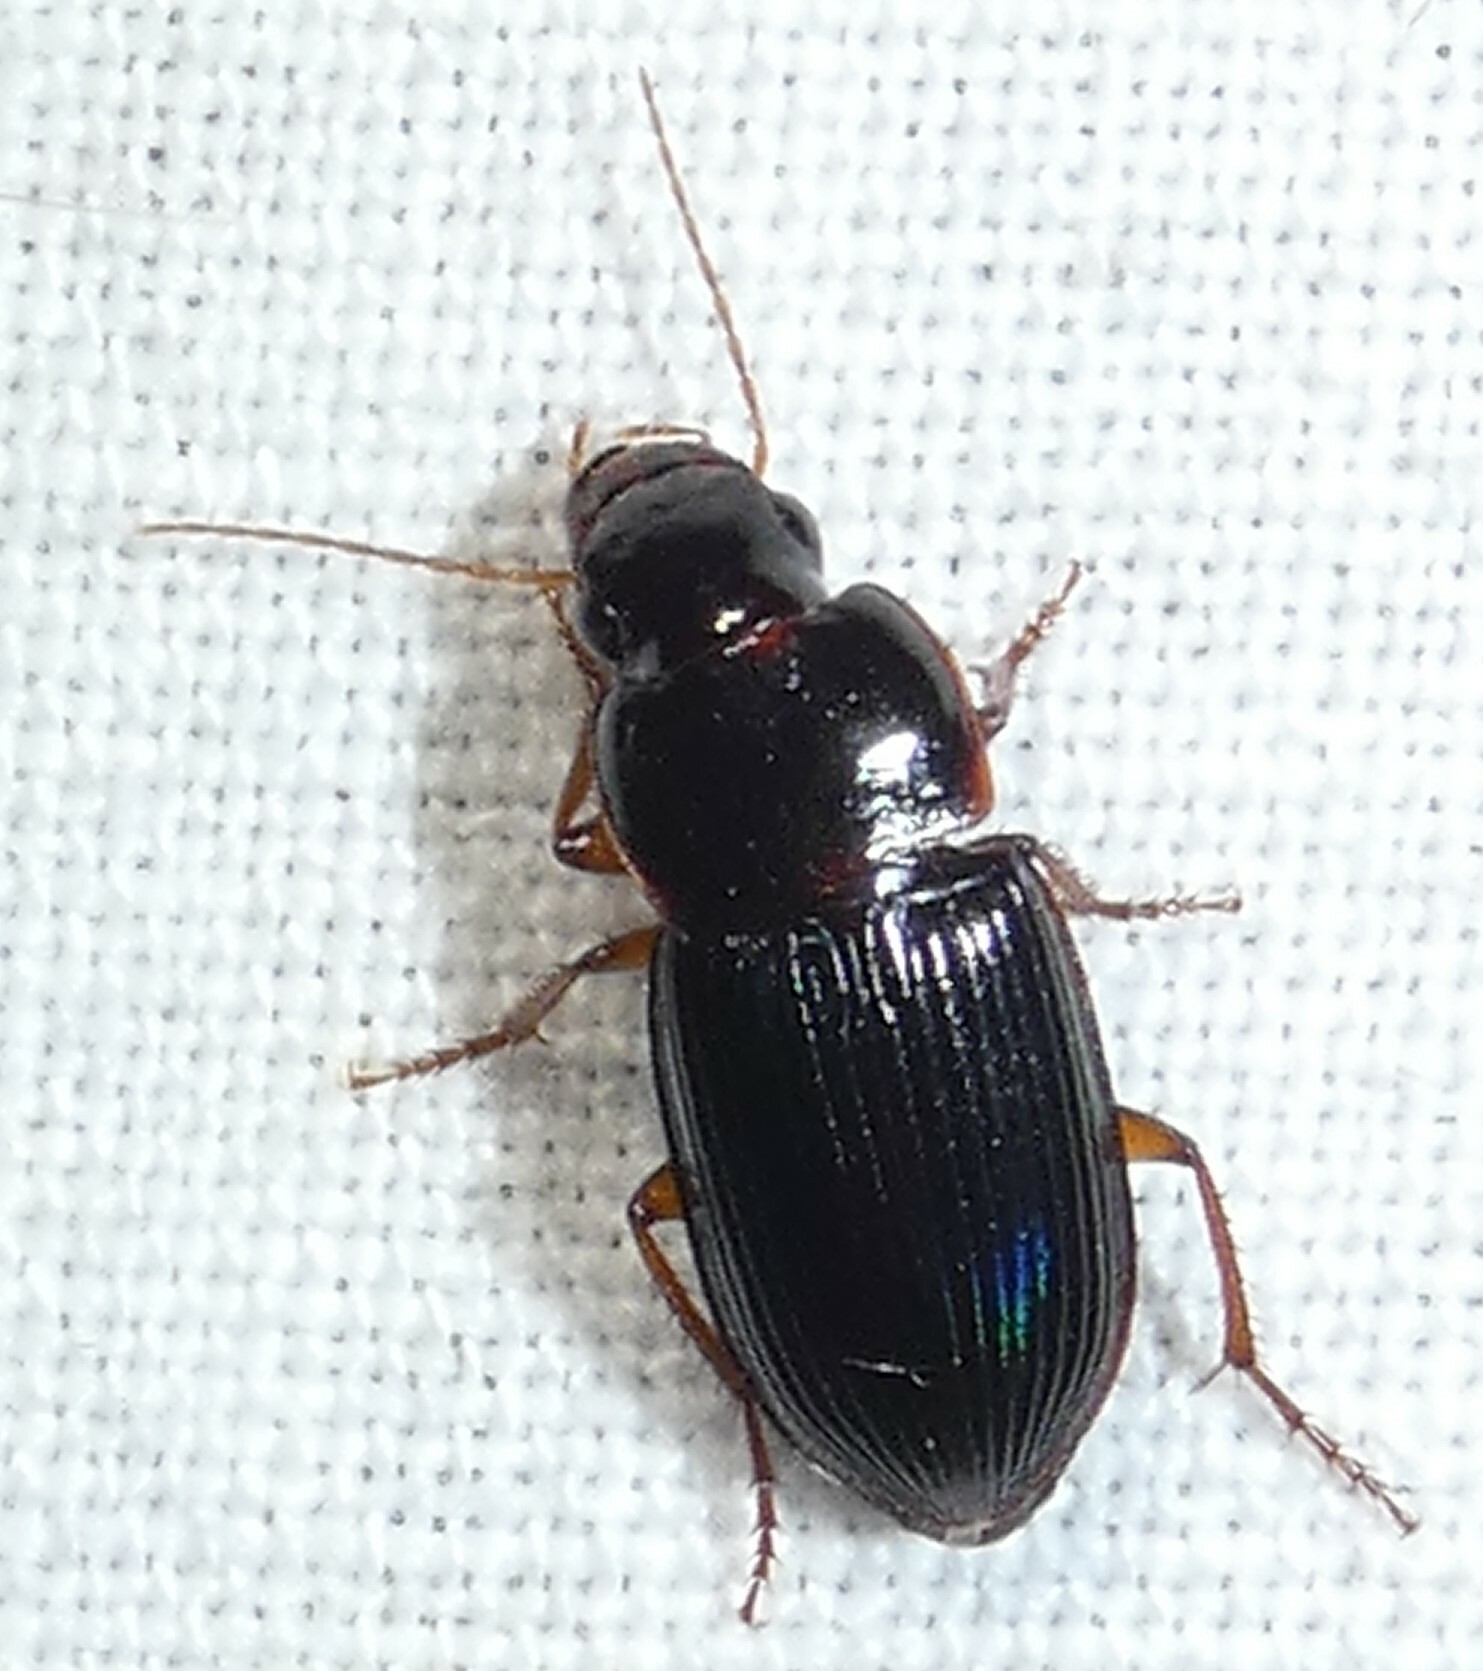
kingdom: Animalia
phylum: Arthropoda
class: Insecta
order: Coleoptera
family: Carabidae
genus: Selenophorus
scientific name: Selenophorus opalinus
